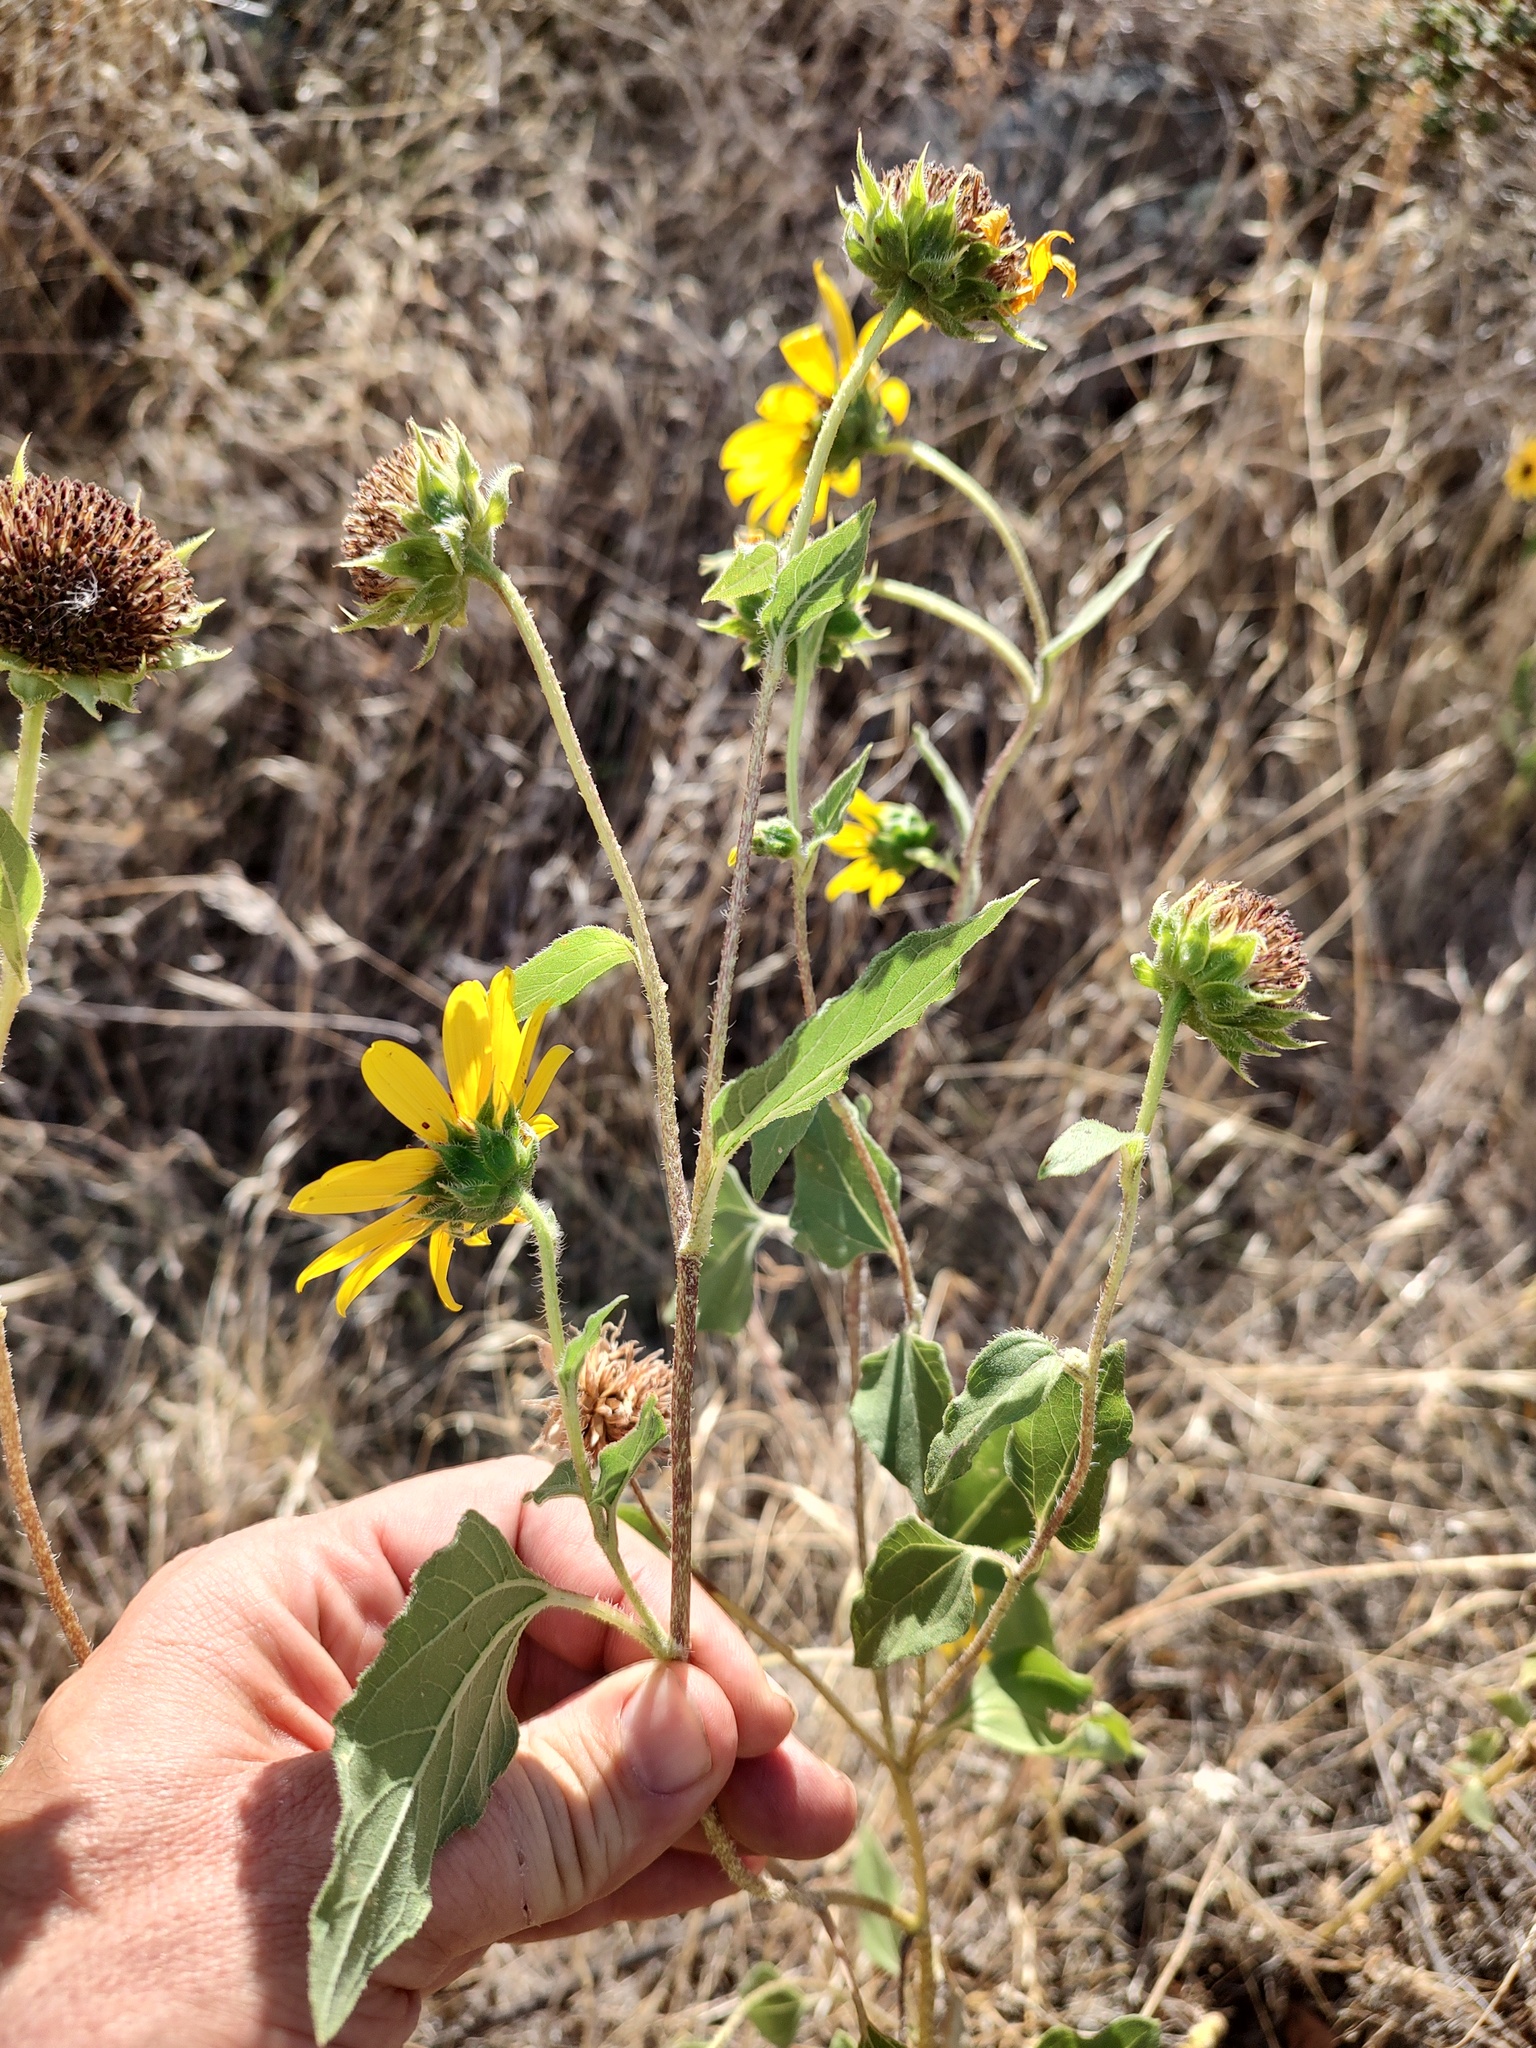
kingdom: Plantae
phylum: Tracheophyta
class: Magnoliopsida
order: Asterales
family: Asteraceae
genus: Helianthus
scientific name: Helianthus annuus
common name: Sunflower
